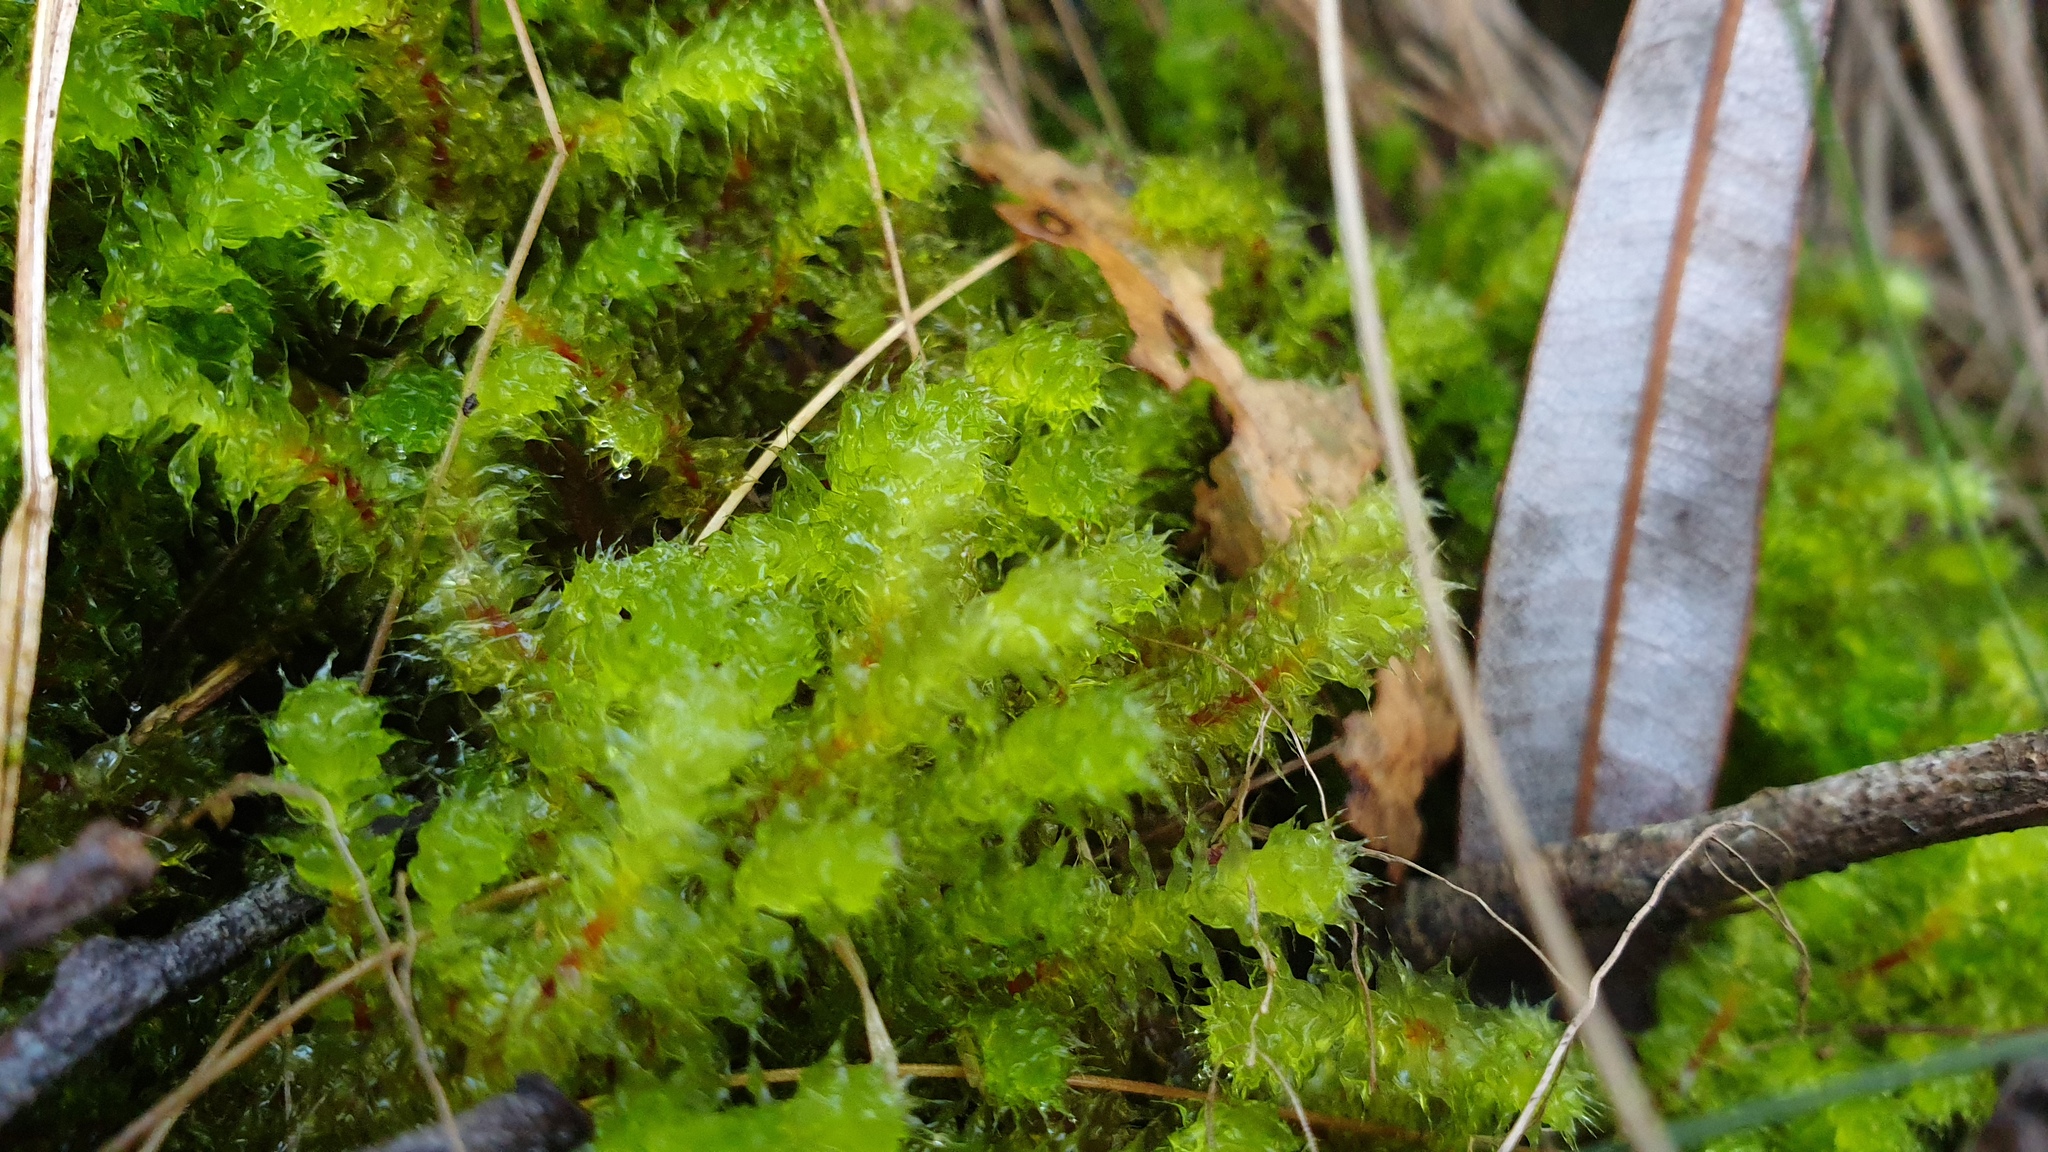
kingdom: Plantae
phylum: Bryophyta
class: Bryopsida
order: Ptychomniales
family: Ptychomniaceae
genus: Ptychomnion
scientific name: Ptychomnion aciculare
